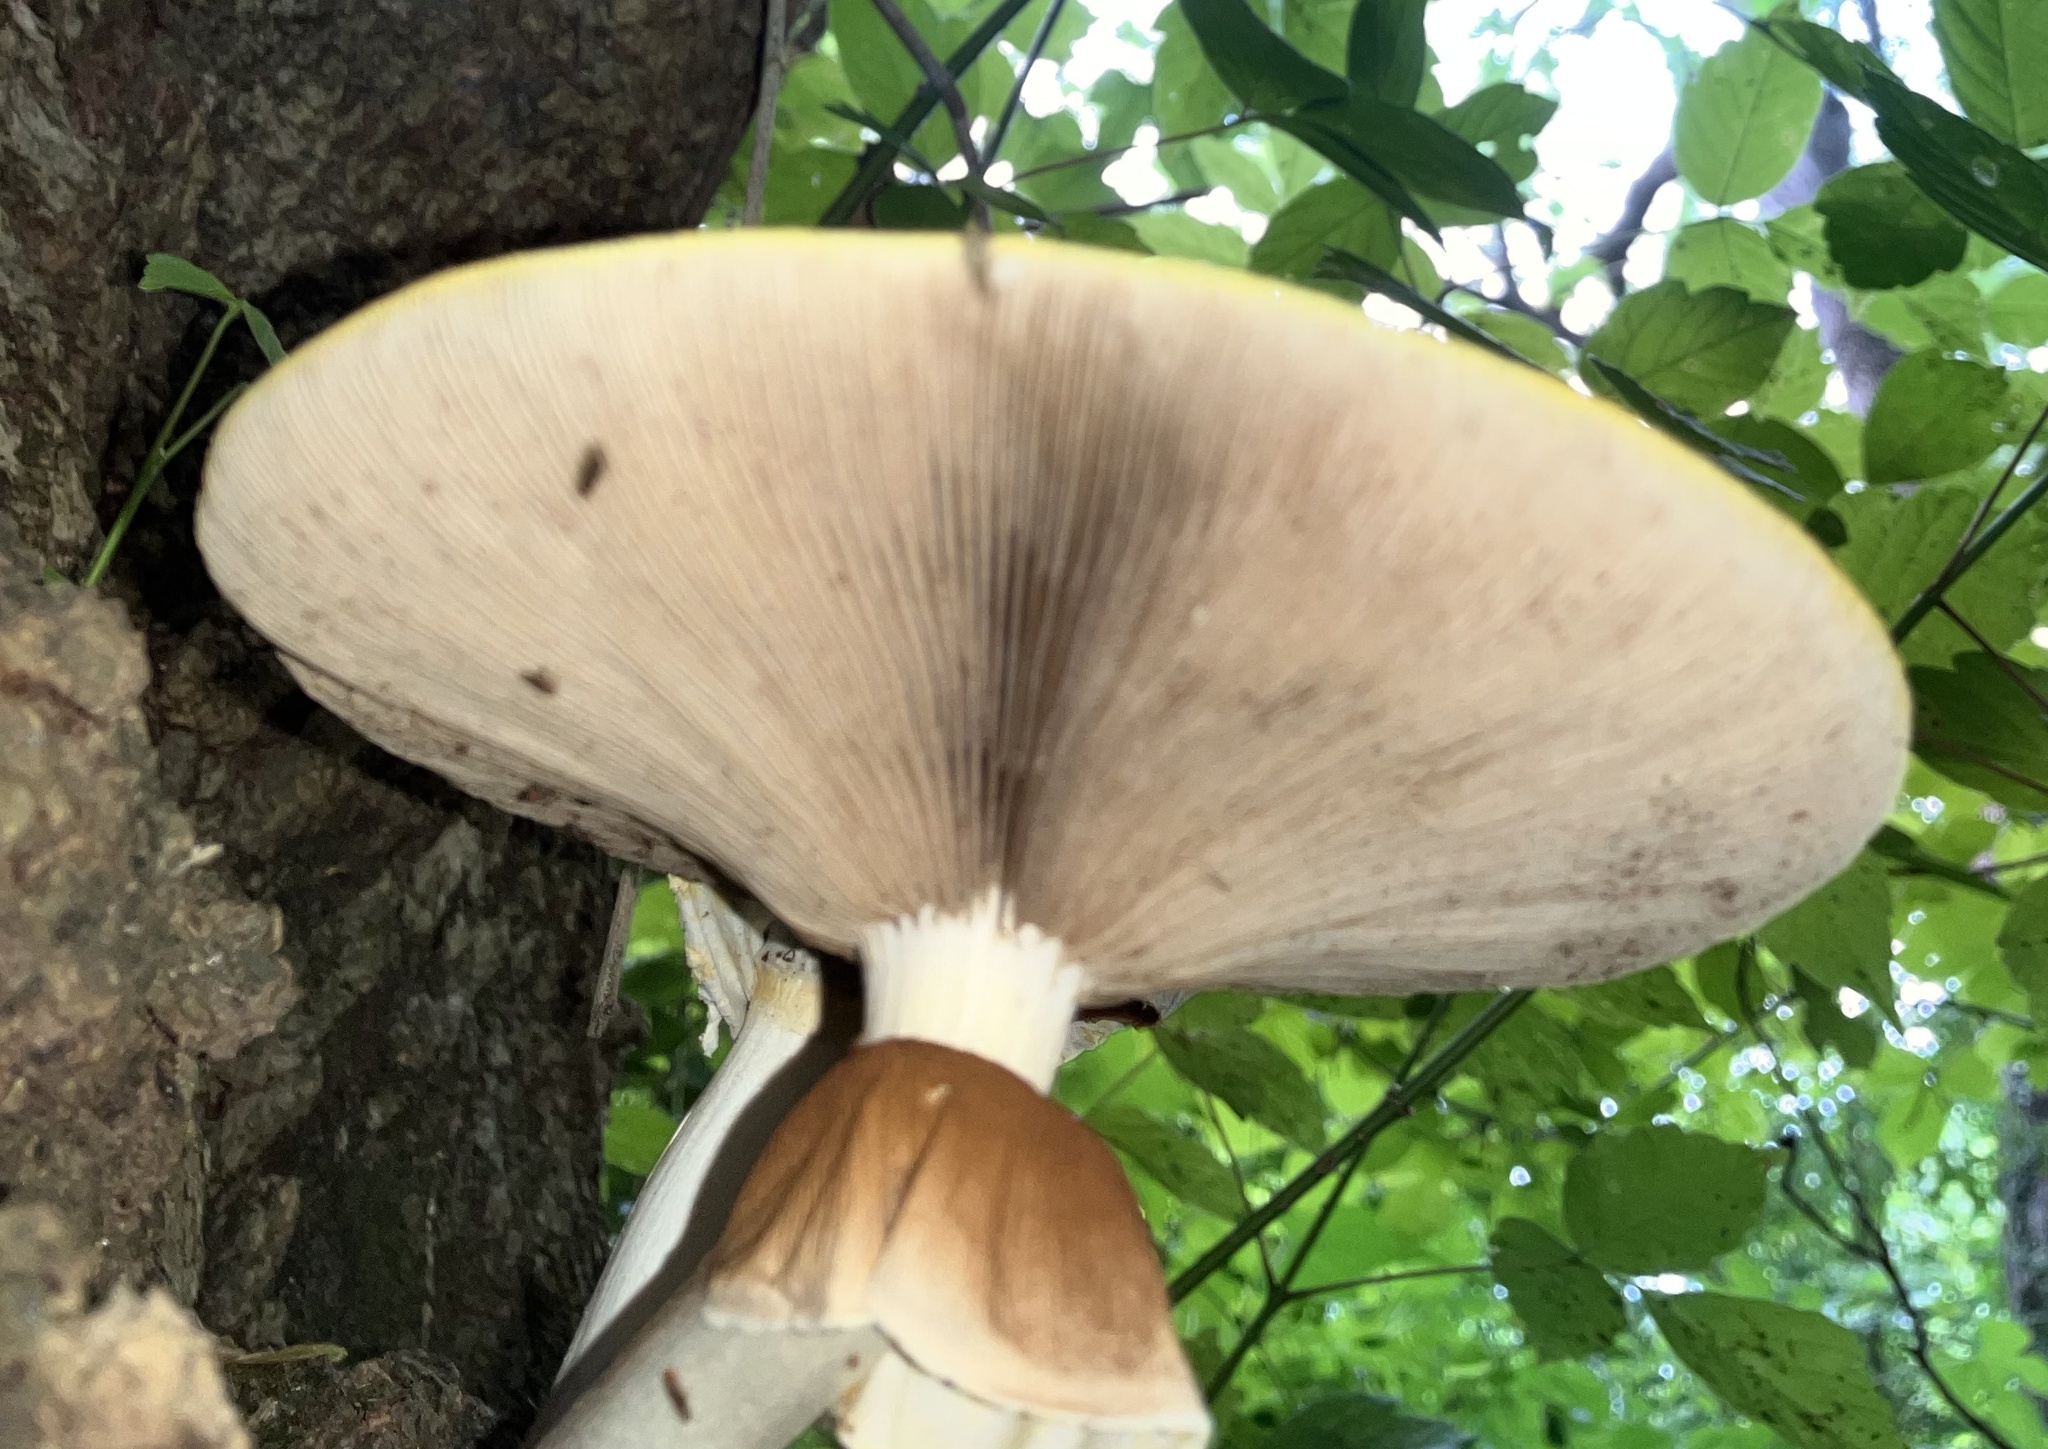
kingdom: Fungi
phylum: Basidiomycota
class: Agaricomycetes
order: Agaricales
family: Tubariaceae
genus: Cyclocybe
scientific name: Cyclocybe cylindracea
